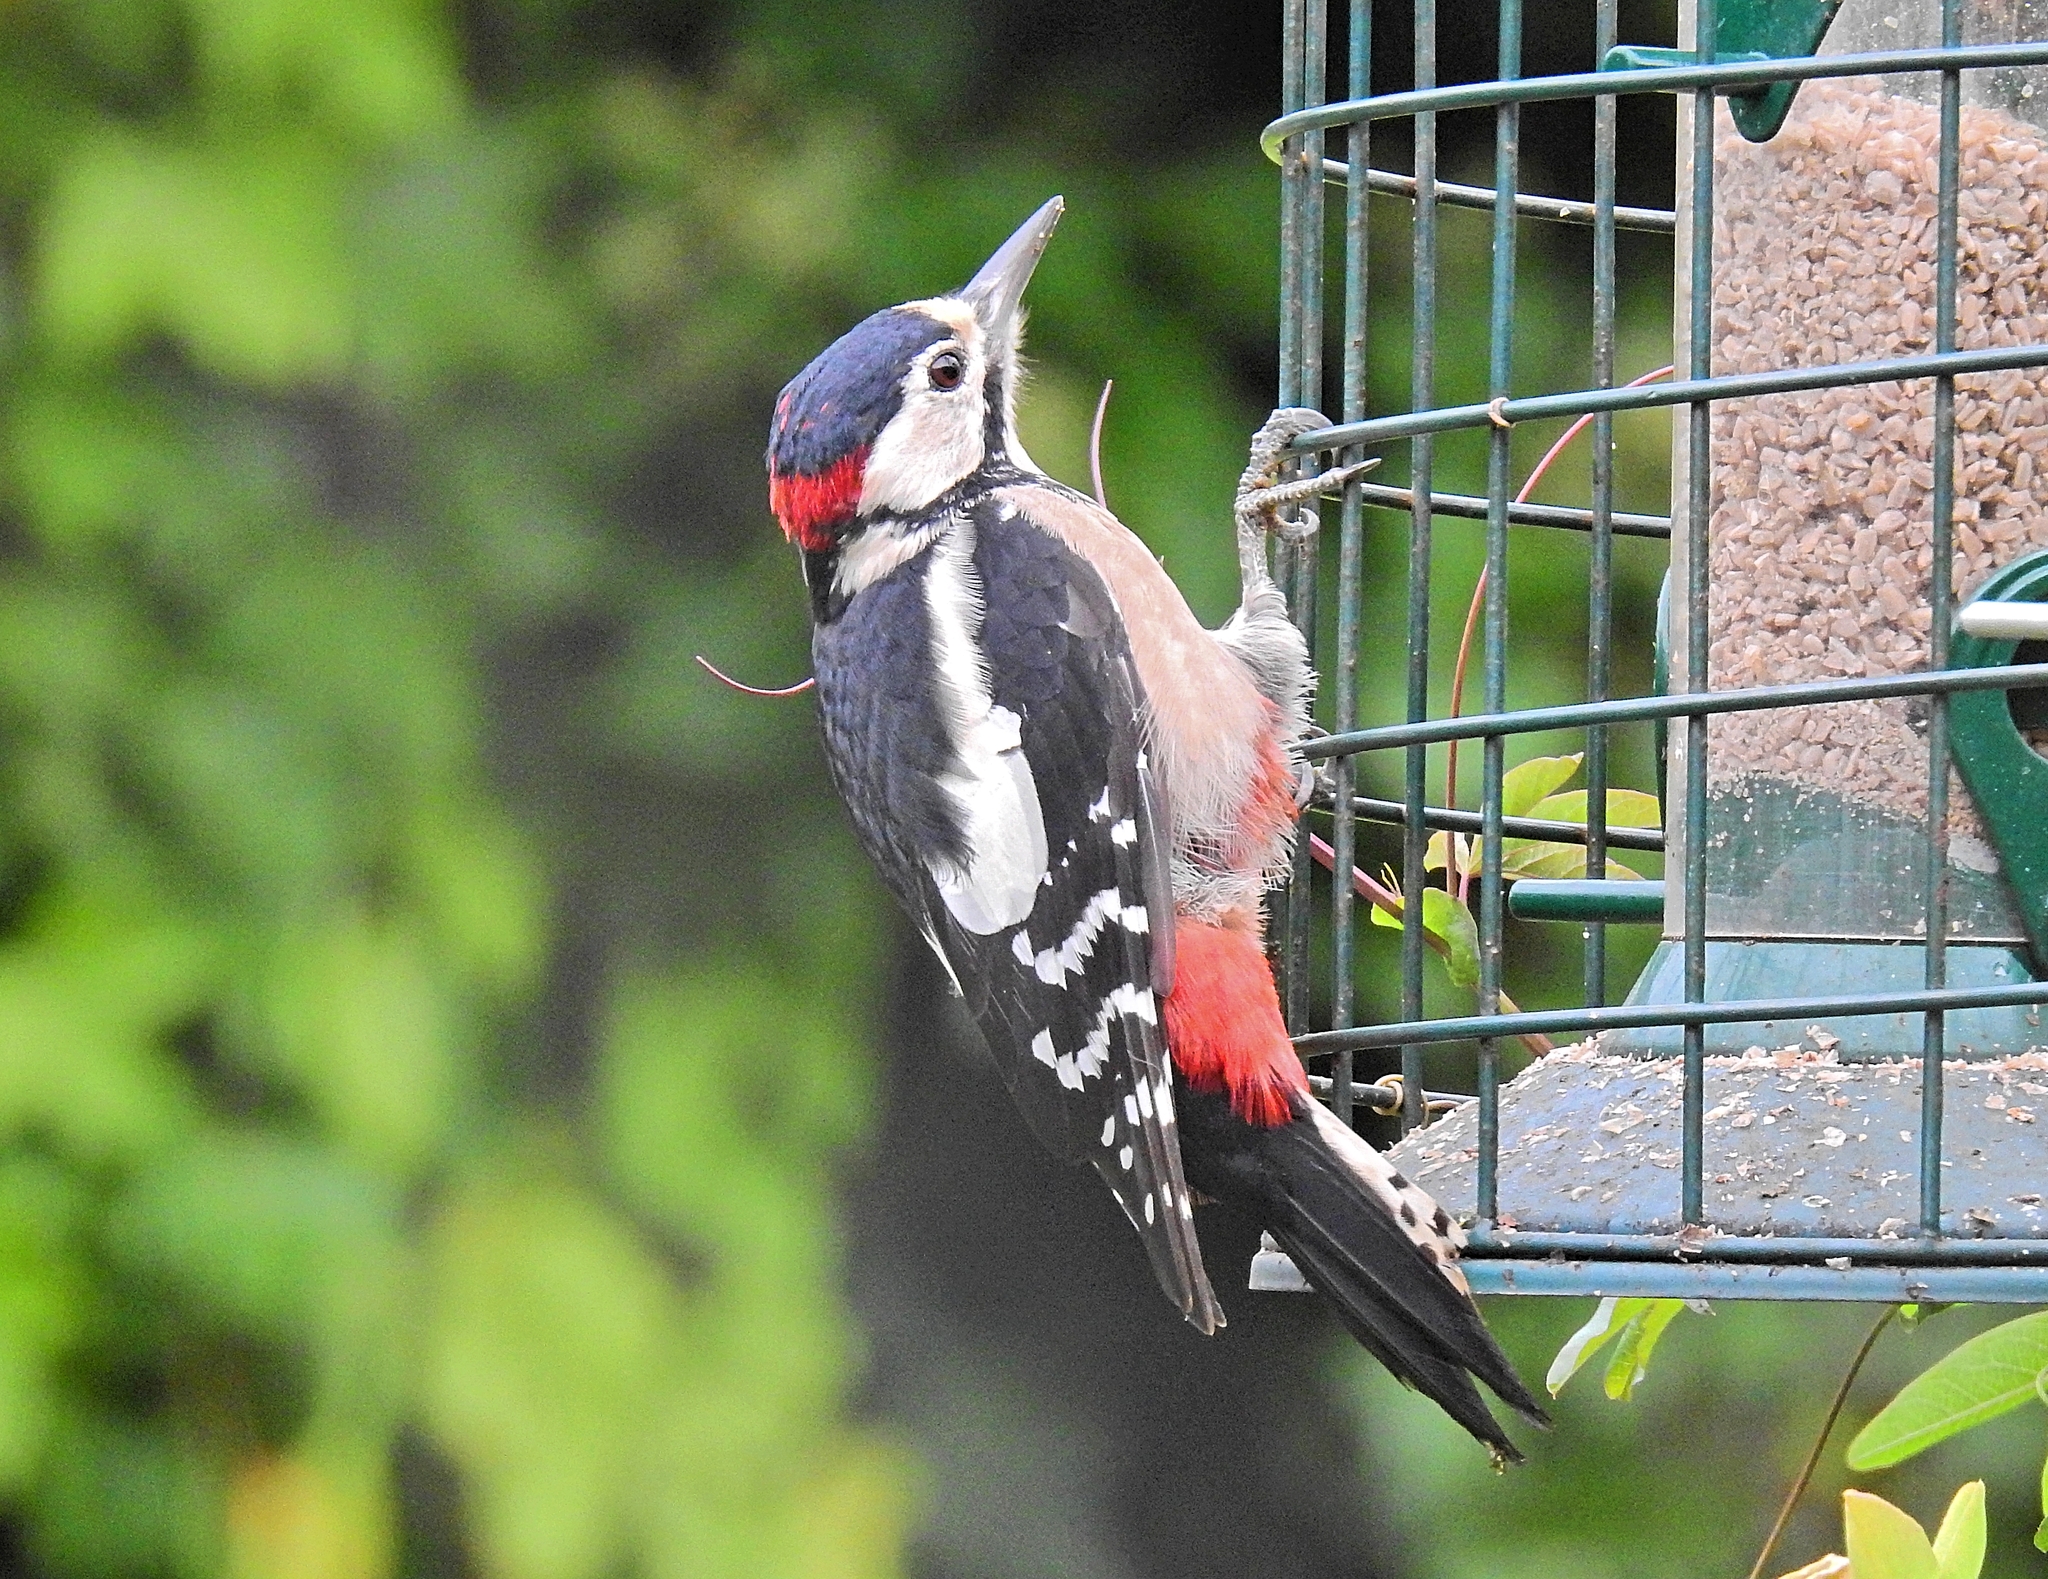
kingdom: Animalia
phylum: Chordata
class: Aves
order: Piciformes
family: Picidae
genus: Dendrocopos
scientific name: Dendrocopos major
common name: Great spotted woodpecker
